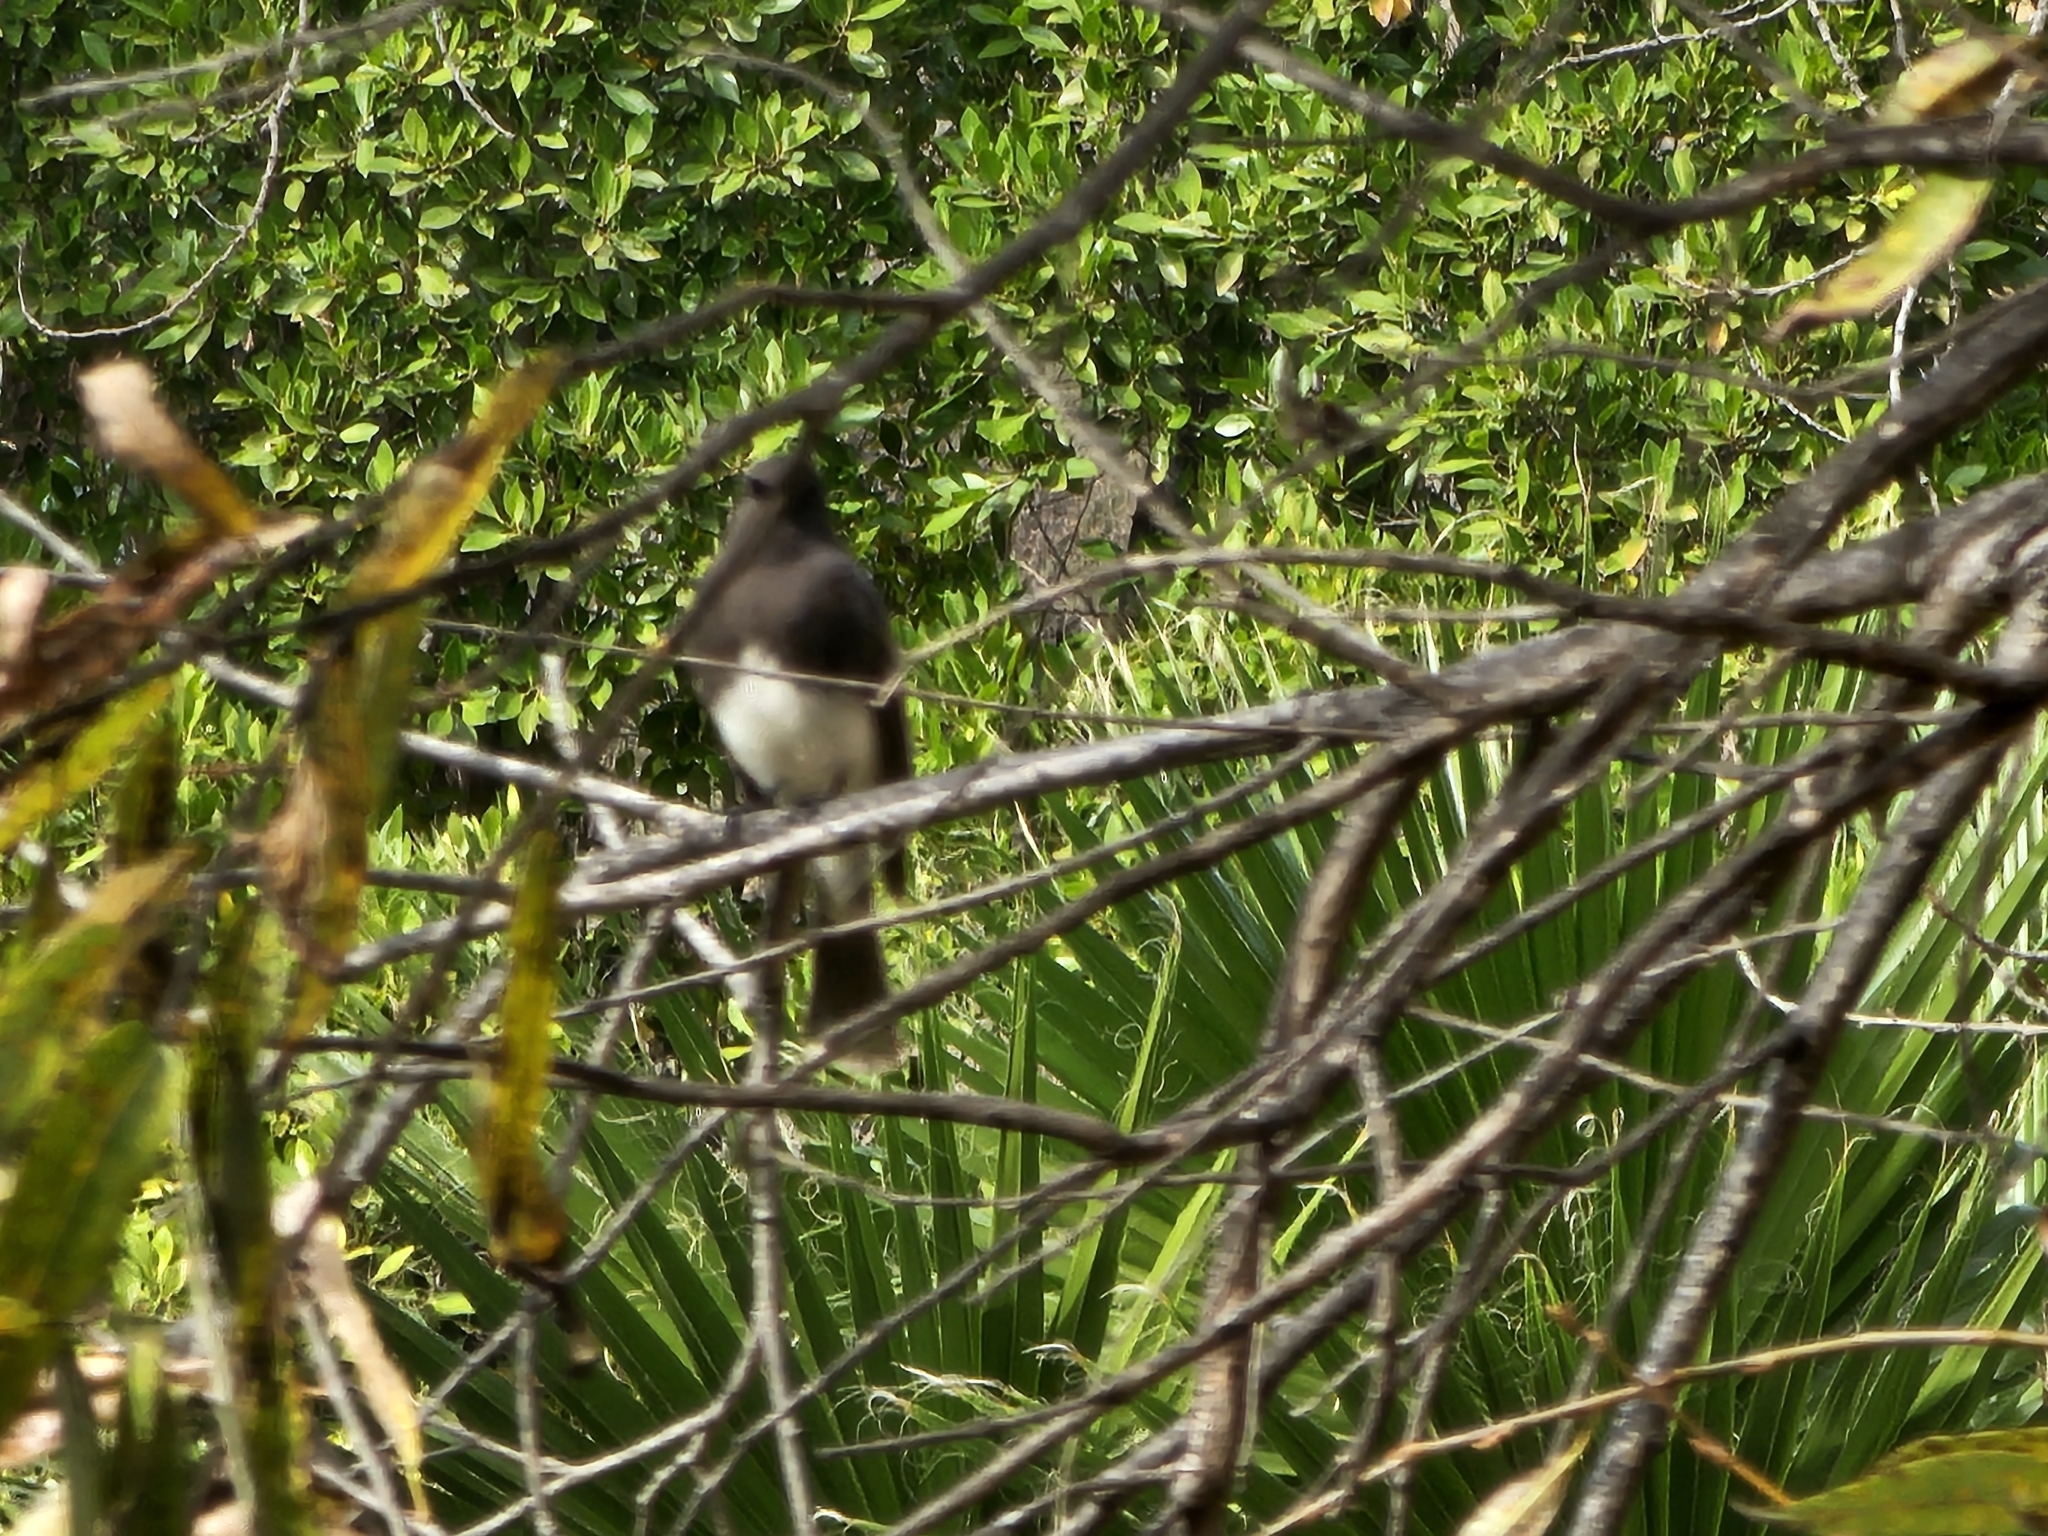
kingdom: Animalia
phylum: Chordata
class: Aves
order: Passeriformes
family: Tyrannidae
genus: Sayornis
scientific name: Sayornis nigricans
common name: Black phoebe
